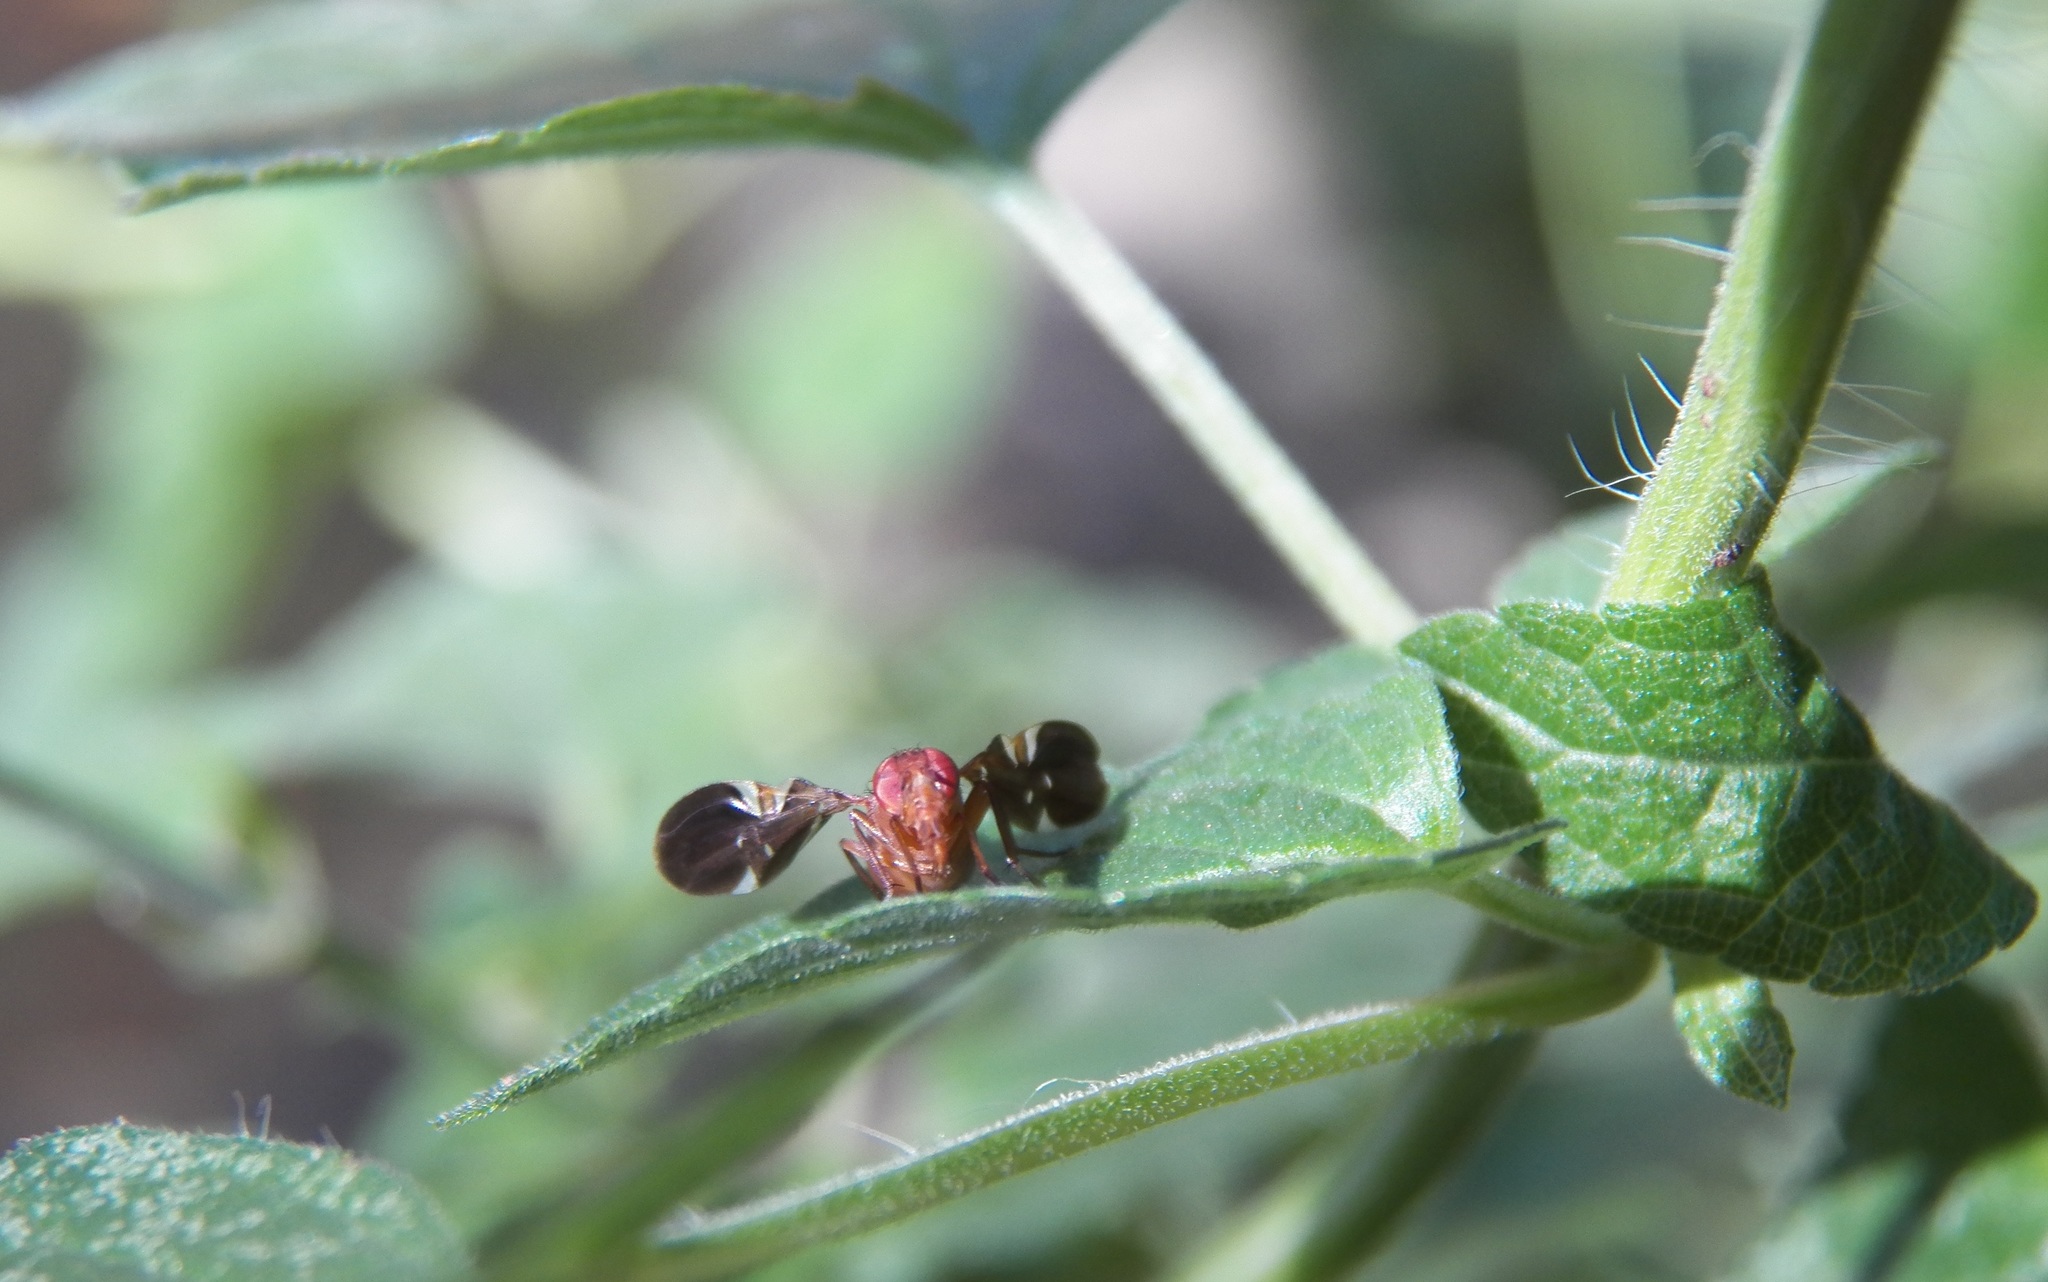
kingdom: Animalia
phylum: Arthropoda
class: Insecta
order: Diptera
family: Ulidiidae
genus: Delphinia
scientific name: Delphinia picta
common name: Common picture-winged fly
